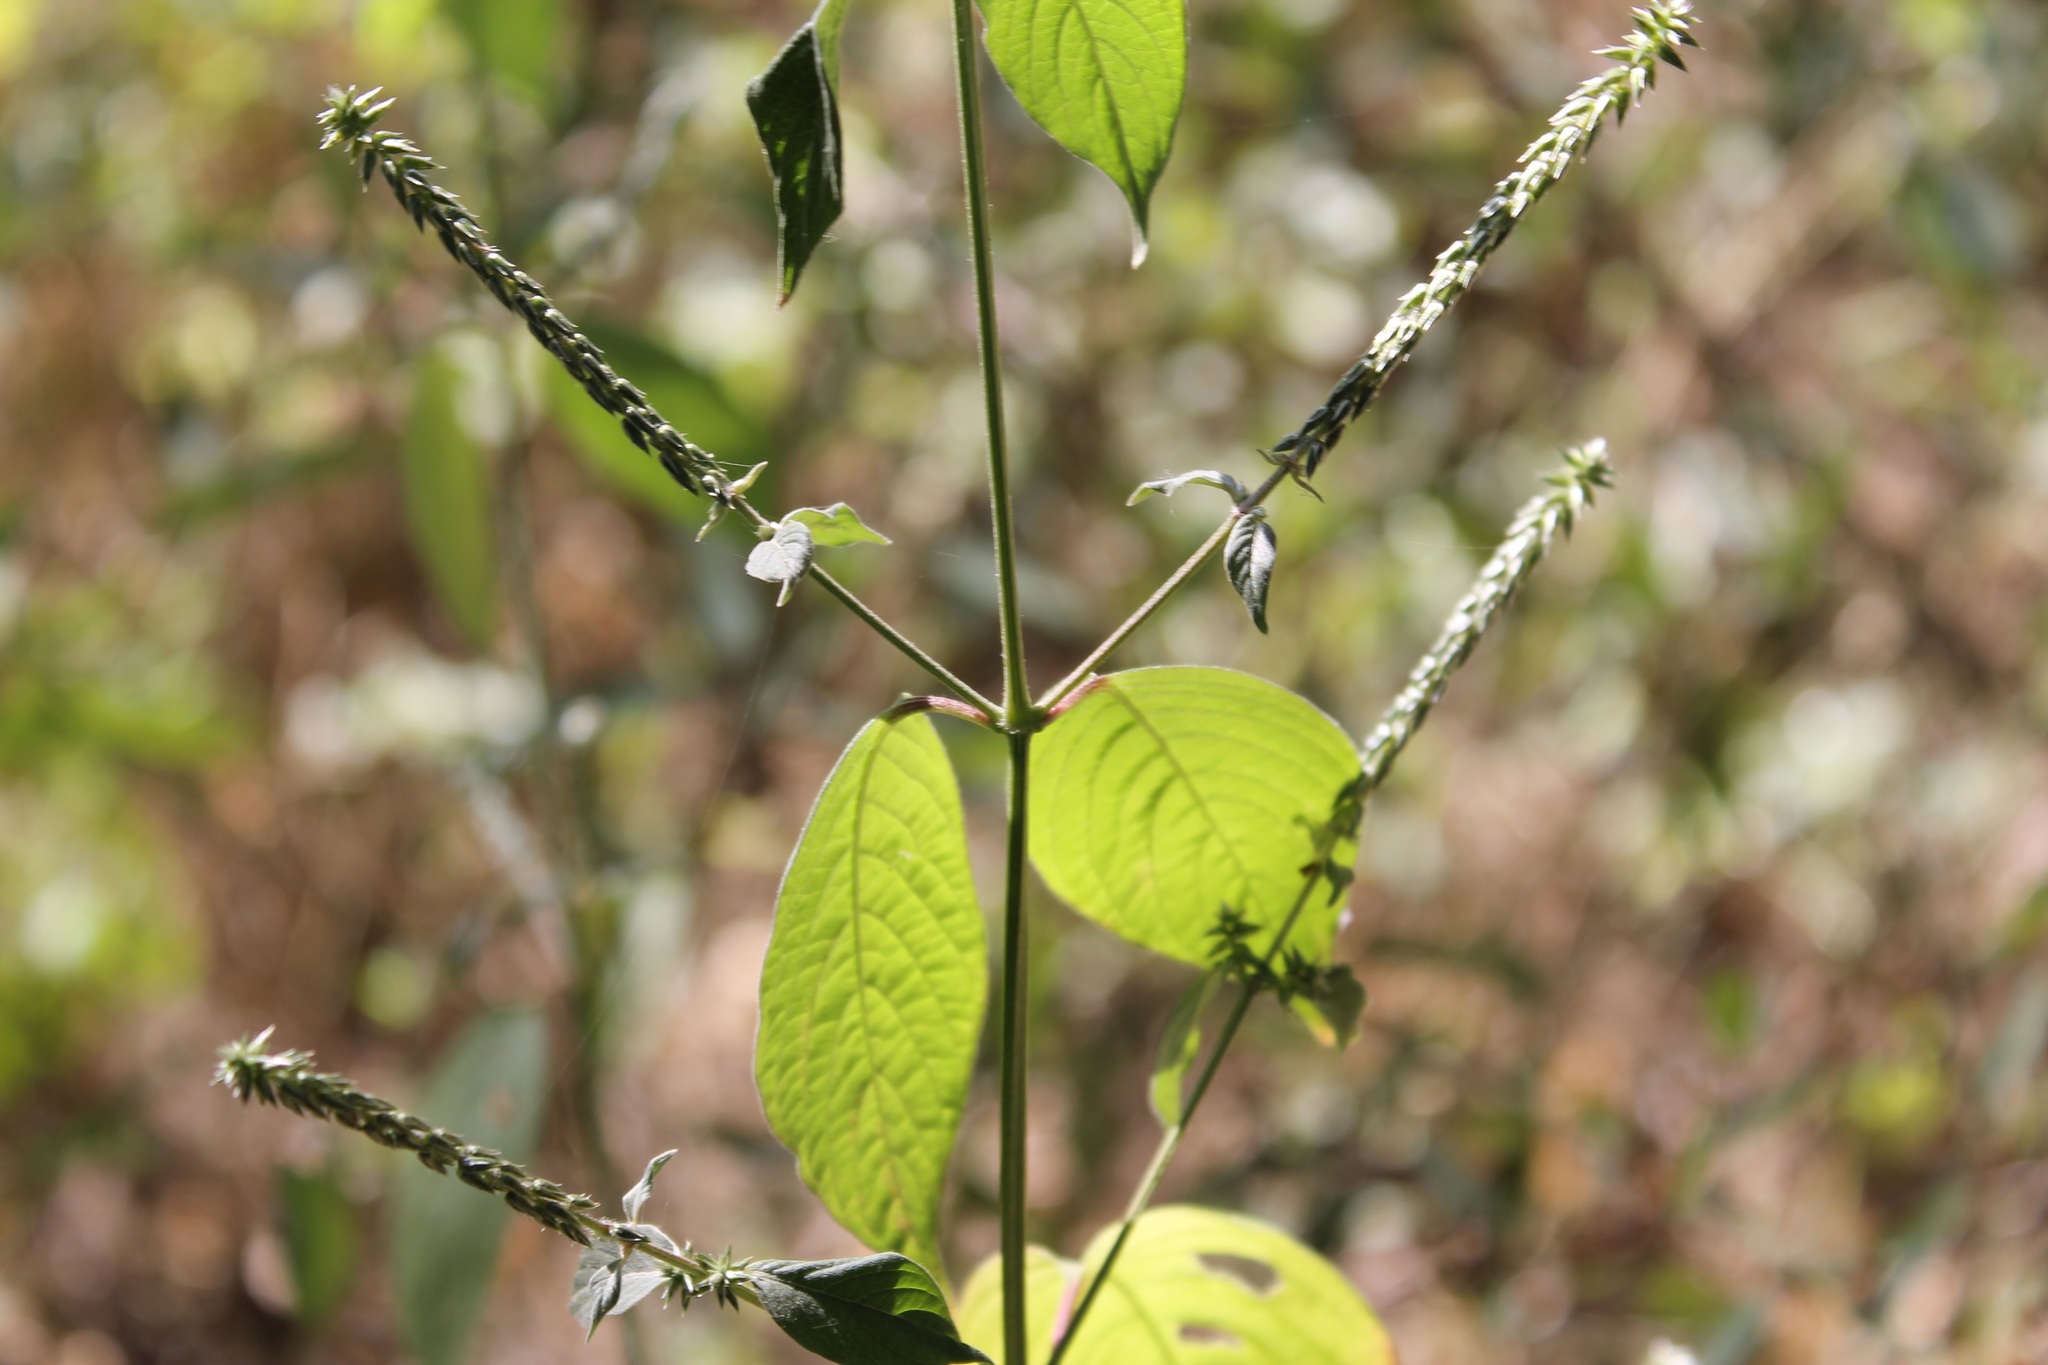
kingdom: Plantae
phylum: Tracheophyta
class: Magnoliopsida
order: Caryophyllales
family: Amaranthaceae
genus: Cyathula
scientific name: Cyathula achyranthoides
